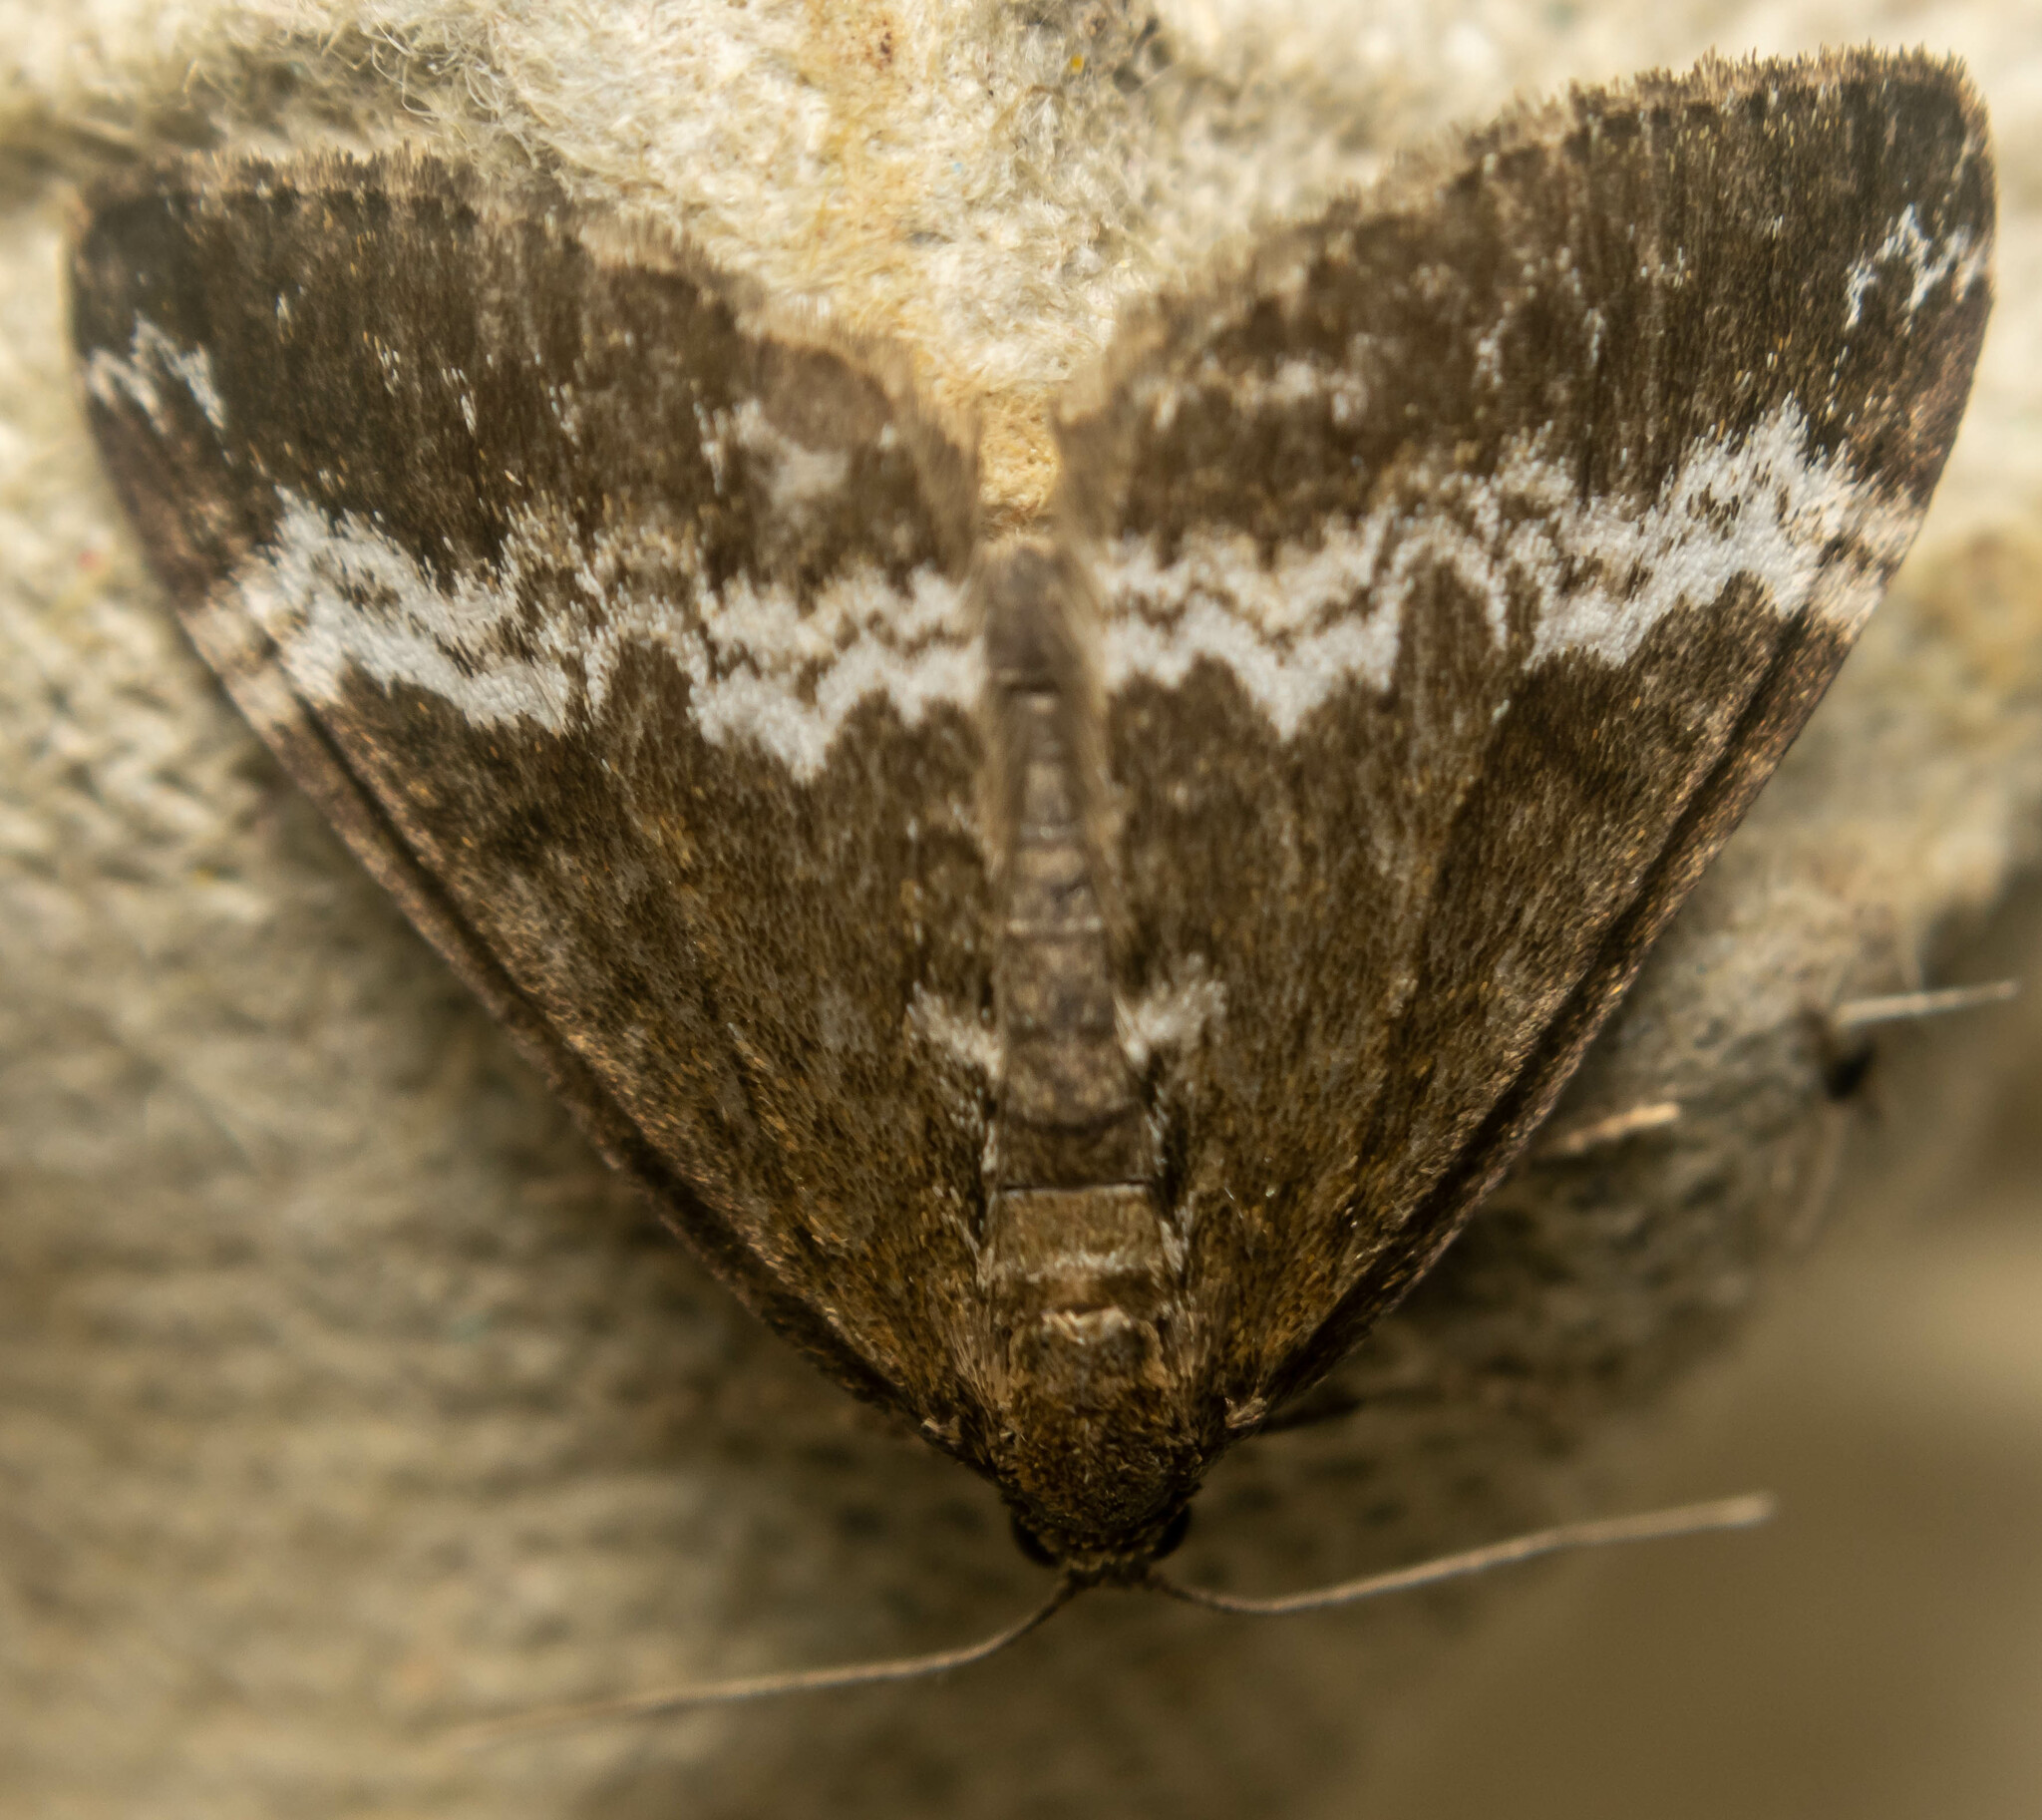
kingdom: Animalia
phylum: Arthropoda
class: Insecta
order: Lepidoptera
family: Geometridae
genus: Perizoma
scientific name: Perizoma affinitata
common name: Rivulet
